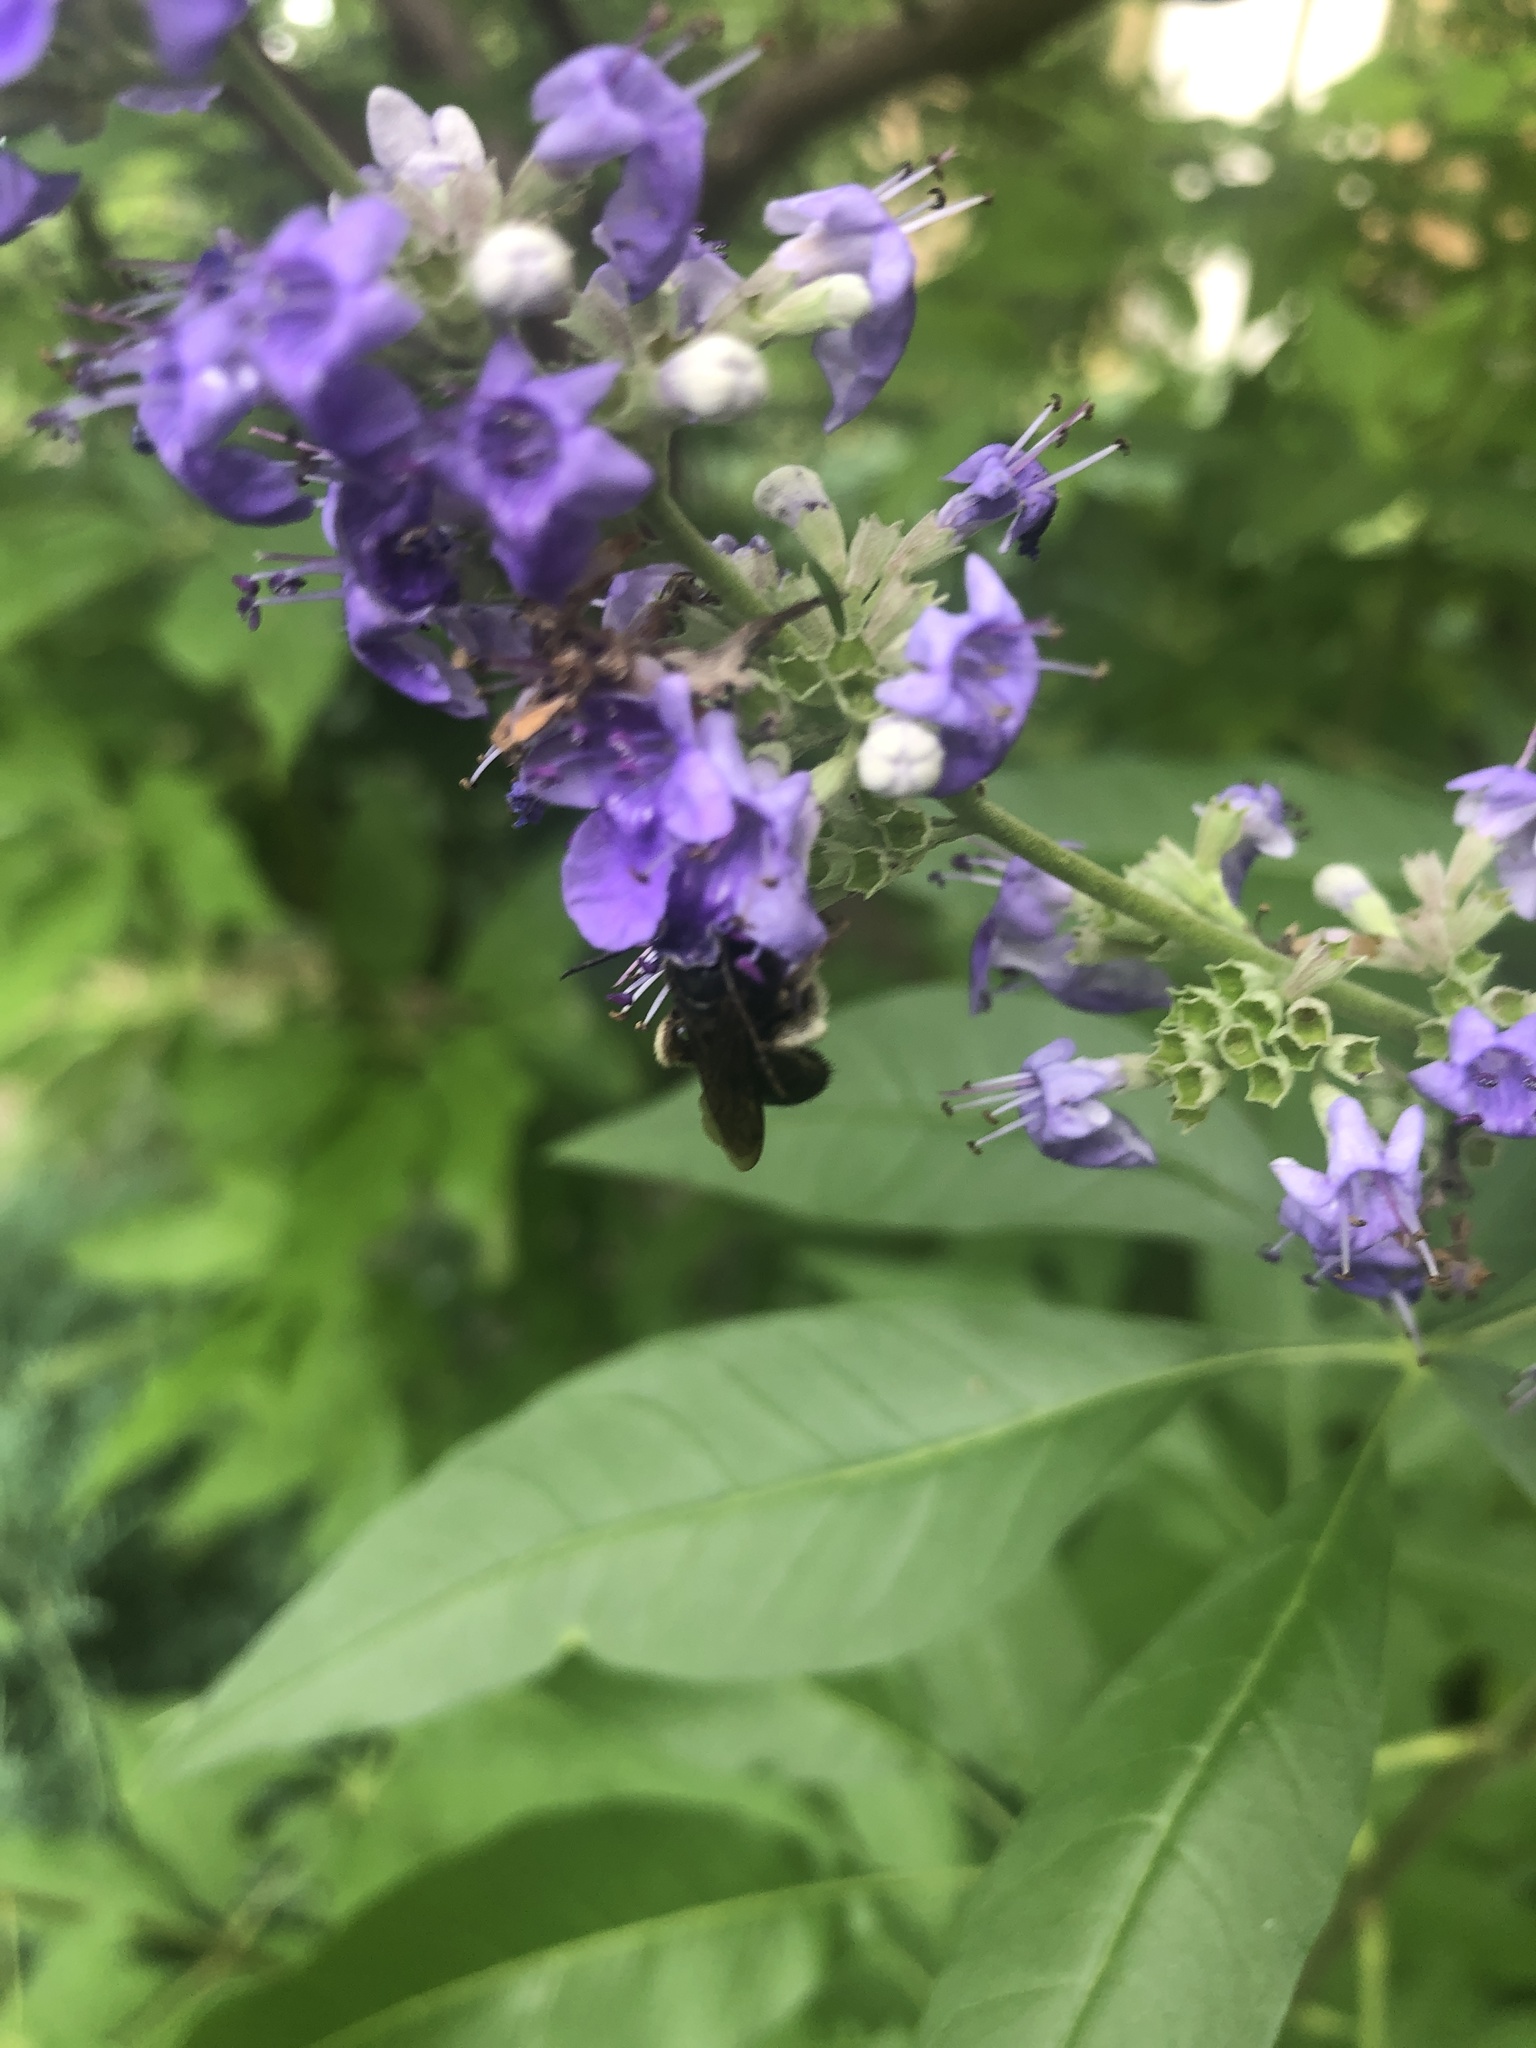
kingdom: Animalia
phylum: Arthropoda
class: Insecta
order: Hymenoptera
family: Apidae
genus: Melissodes
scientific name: Melissodes bimaculatus
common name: Two-spotted long-horned bee
